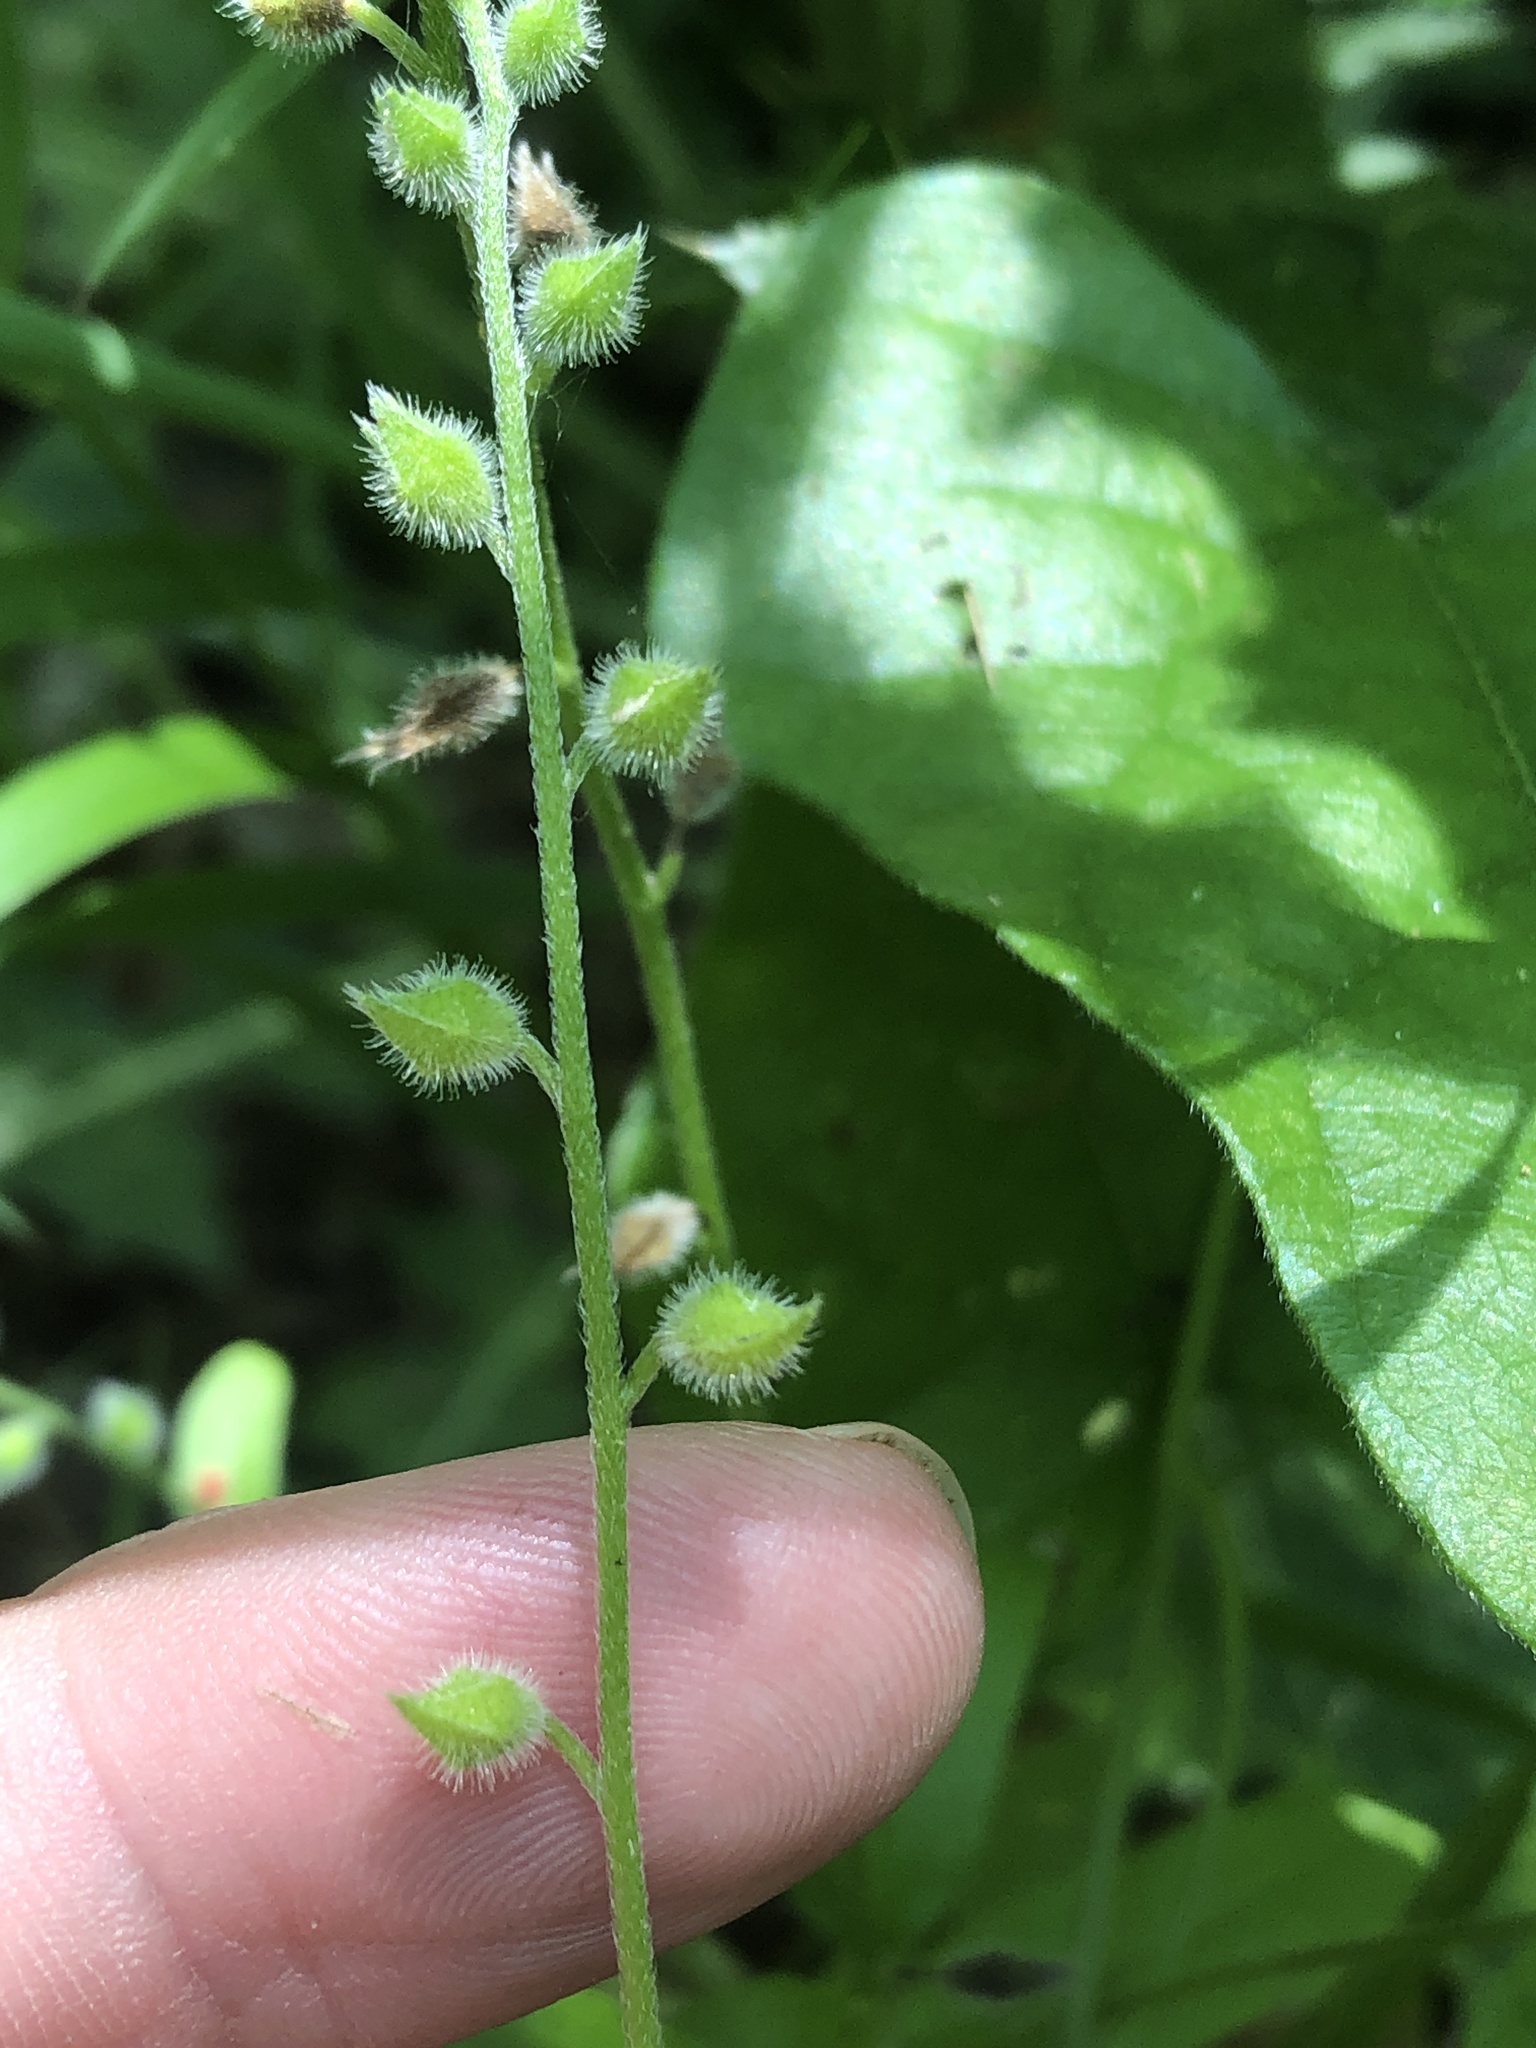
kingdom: Plantae
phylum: Tracheophyta
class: Magnoliopsida
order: Boraginales
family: Boraginaceae
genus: Myosotis
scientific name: Myosotis macrosperma
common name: Large-seed forget-me-not
